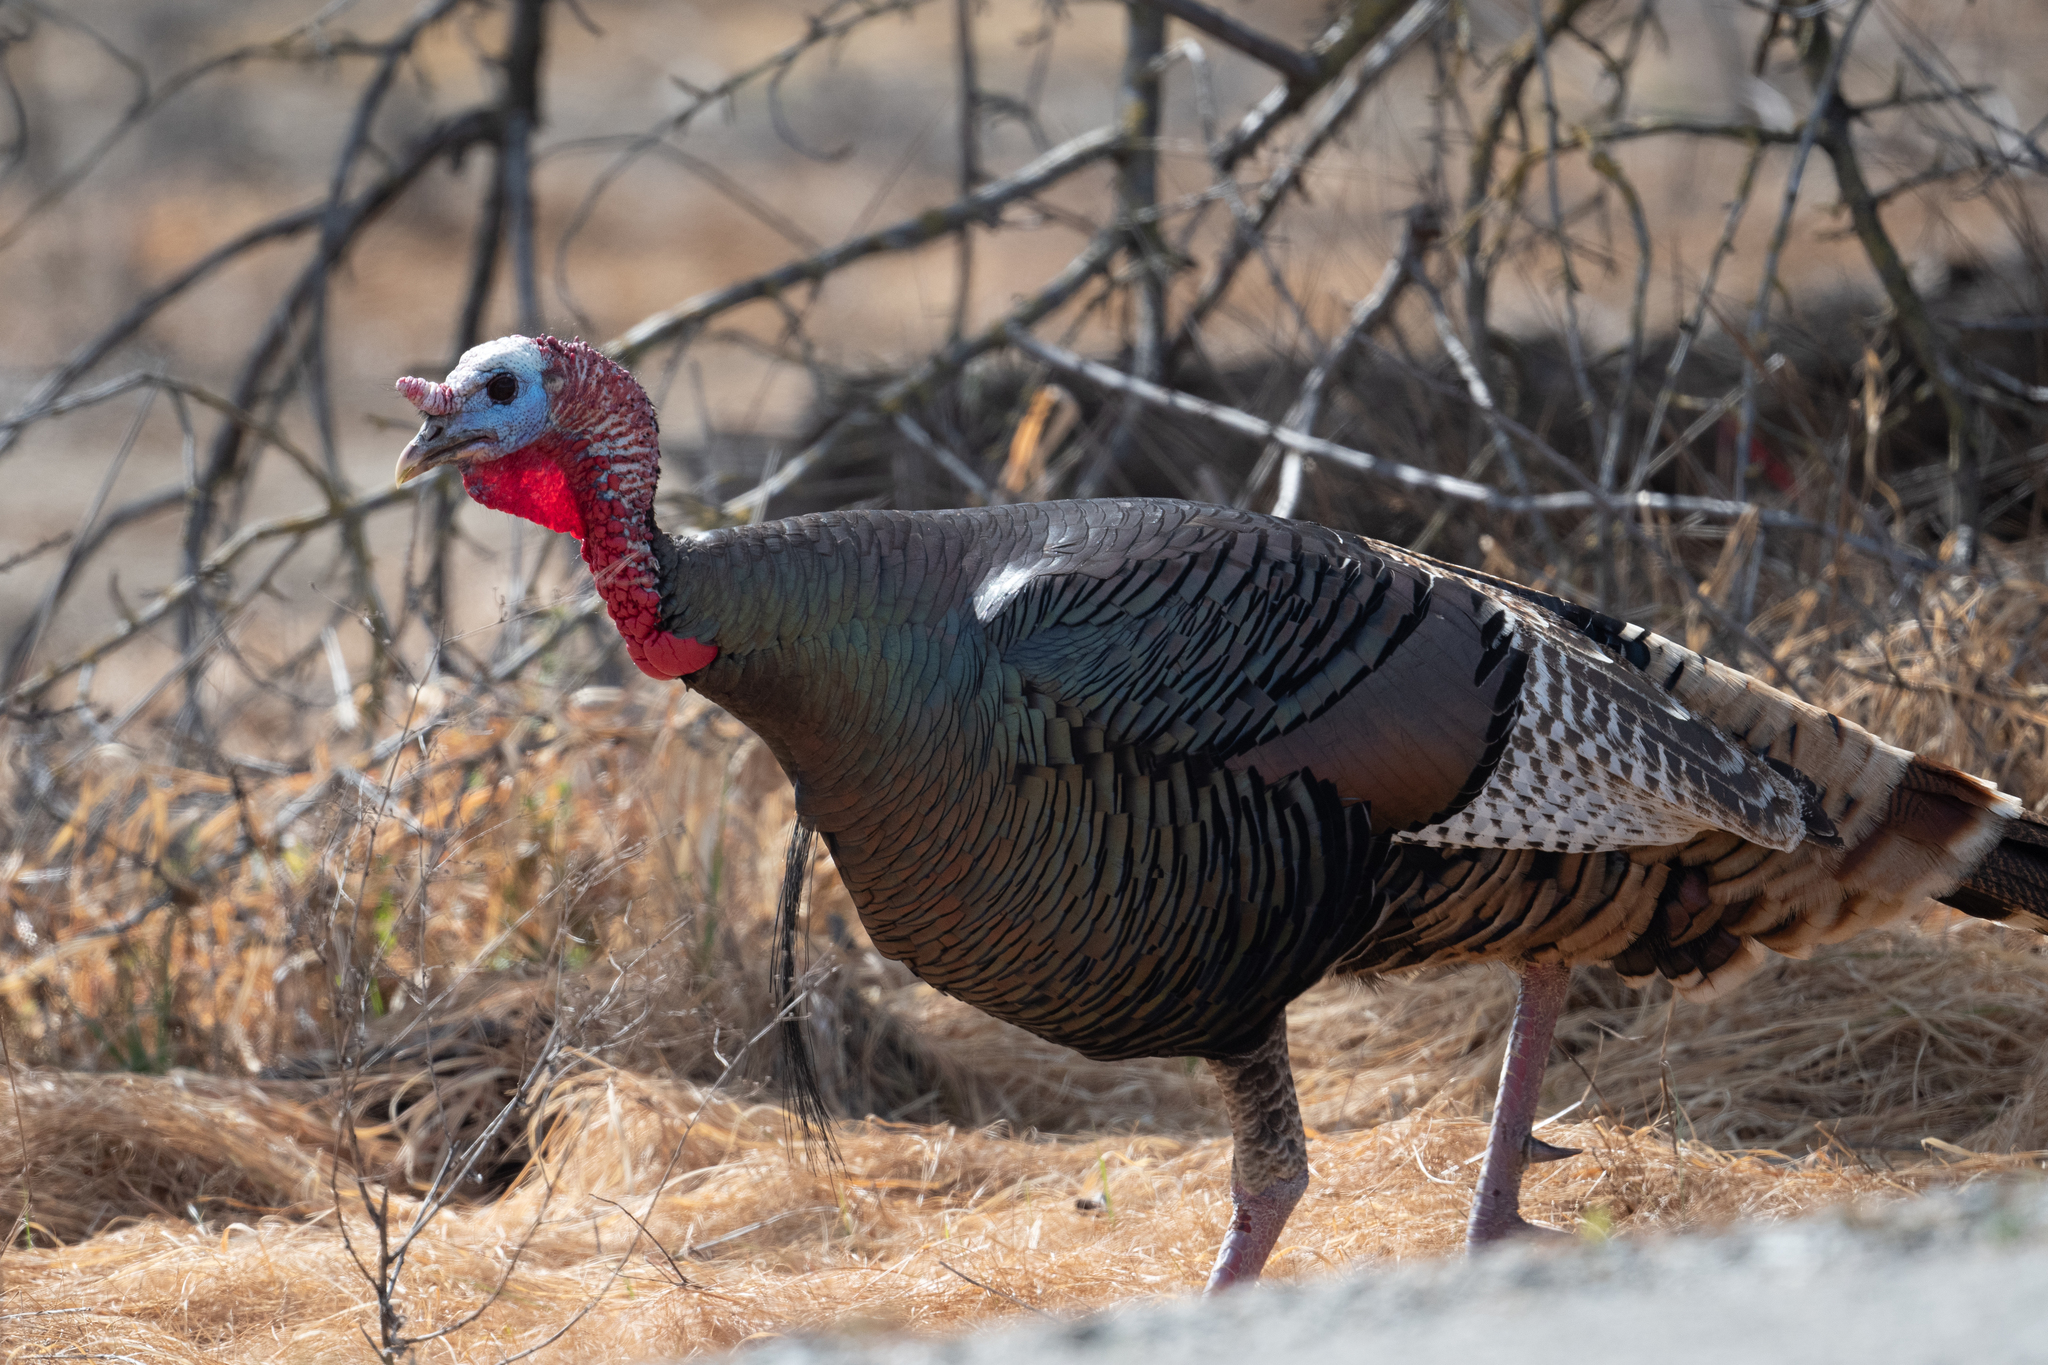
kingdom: Animalia
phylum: Chordata
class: Aves
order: Galliformes
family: Phasianidae
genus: Meleagris
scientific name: Meleagris gallopavo
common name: Wild turkey
